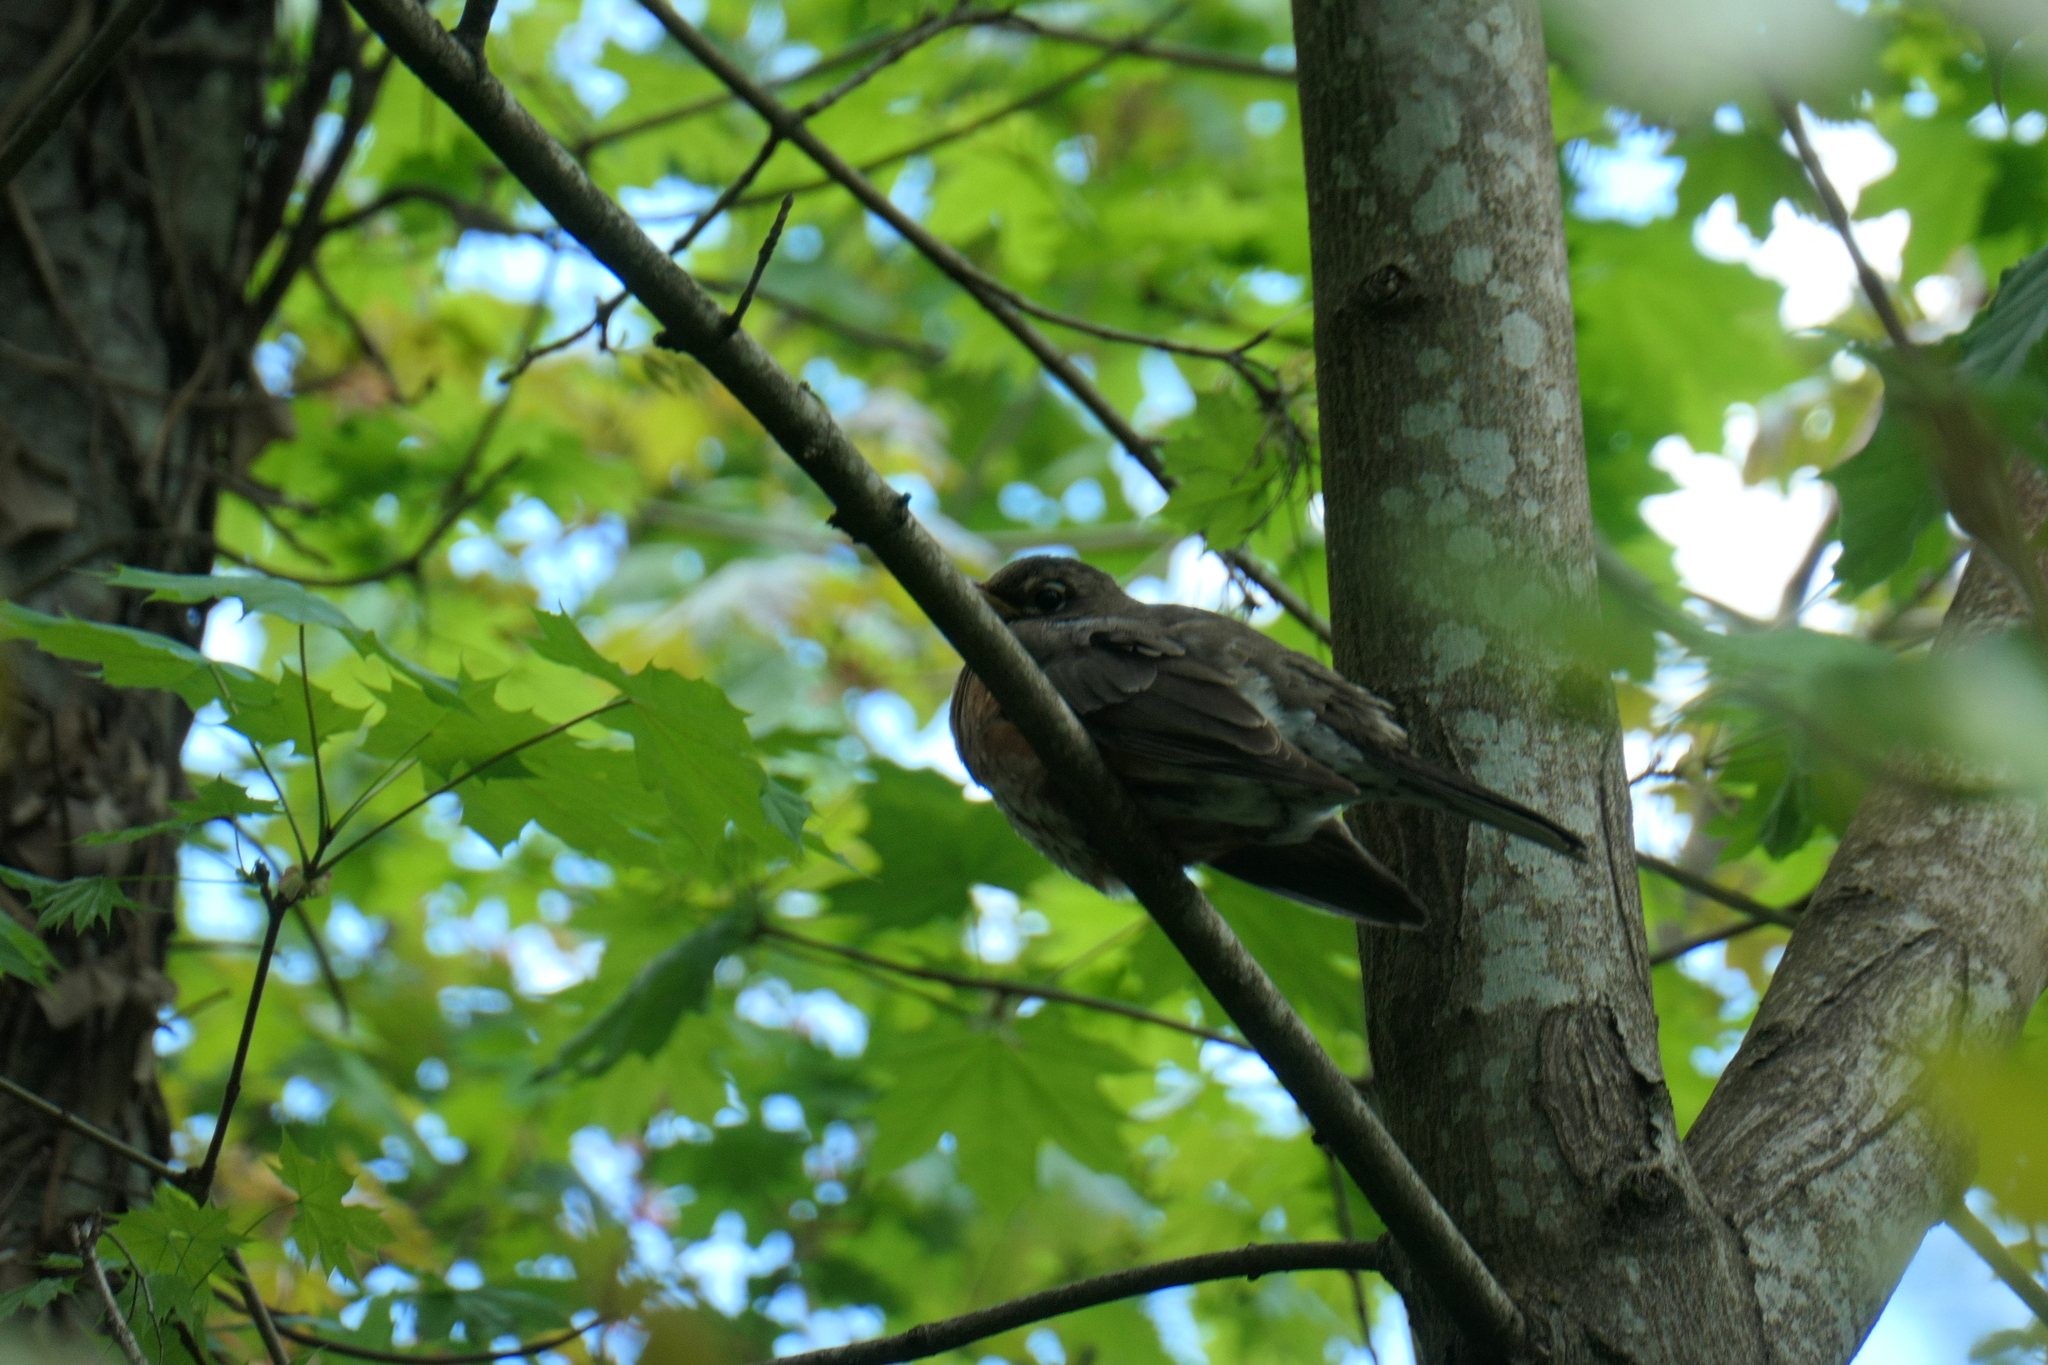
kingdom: Animalia
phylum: Chordata
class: Aves
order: Passeriformes
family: Turdidae
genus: Turdus
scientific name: Turdus migratorius
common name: American robin
